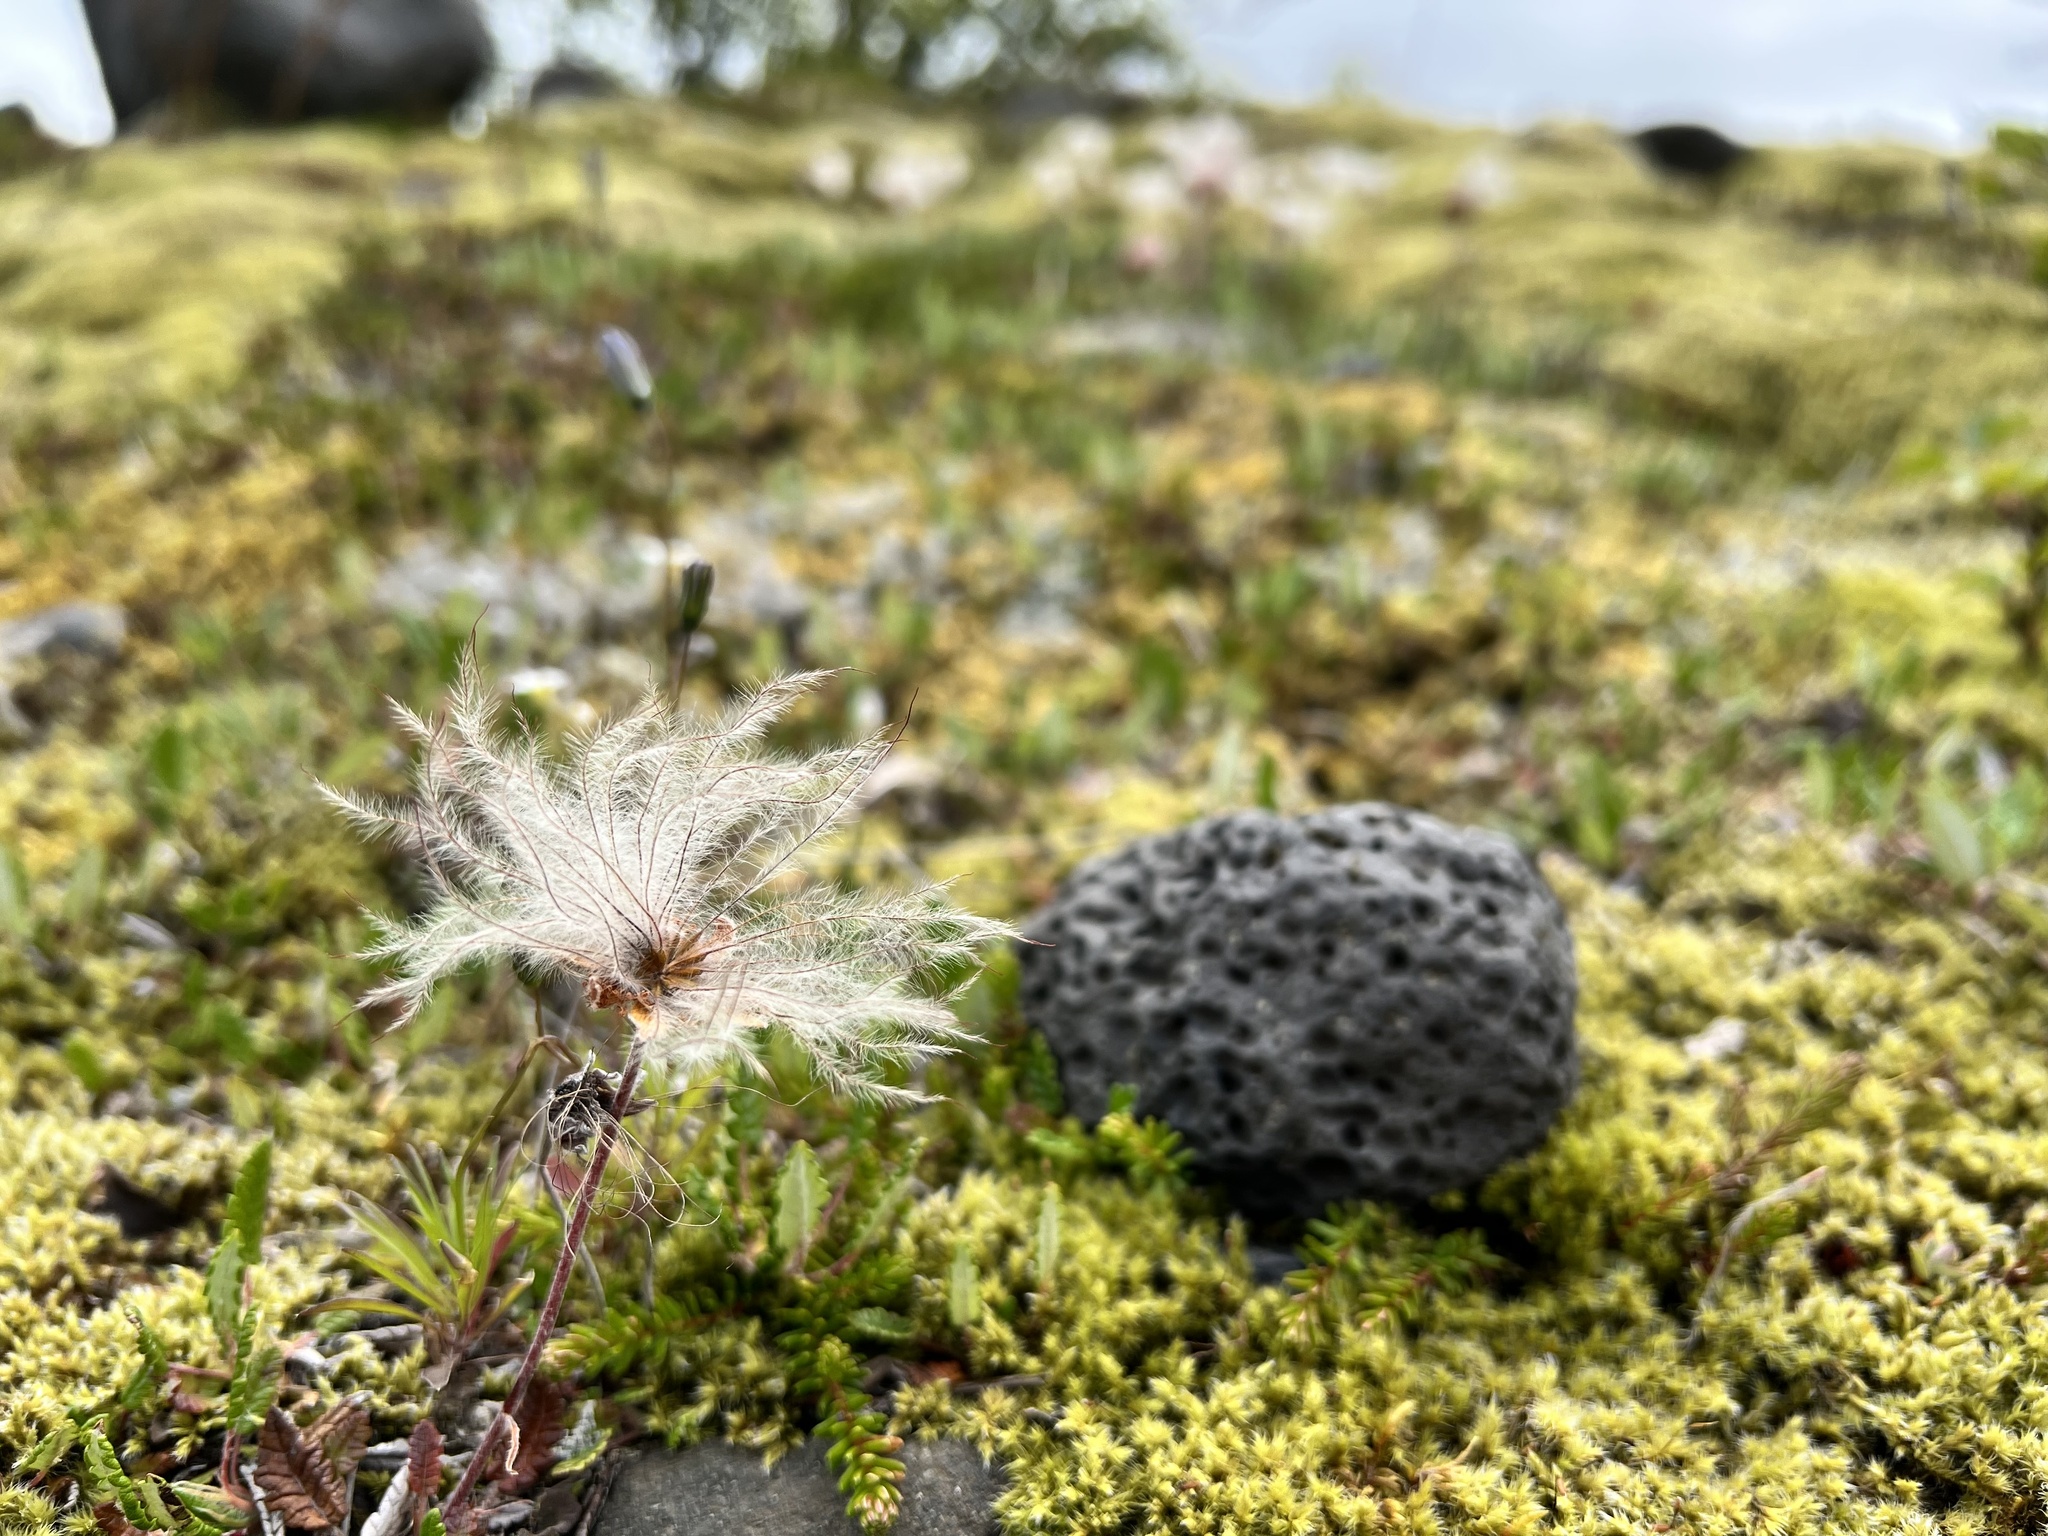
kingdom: Plantae
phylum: Tracheophyta
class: Magnoliopsida
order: Rosales
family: Rosaceae
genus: Dryas
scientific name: Dryas octopetala
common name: Eight-petal mountain-avens
